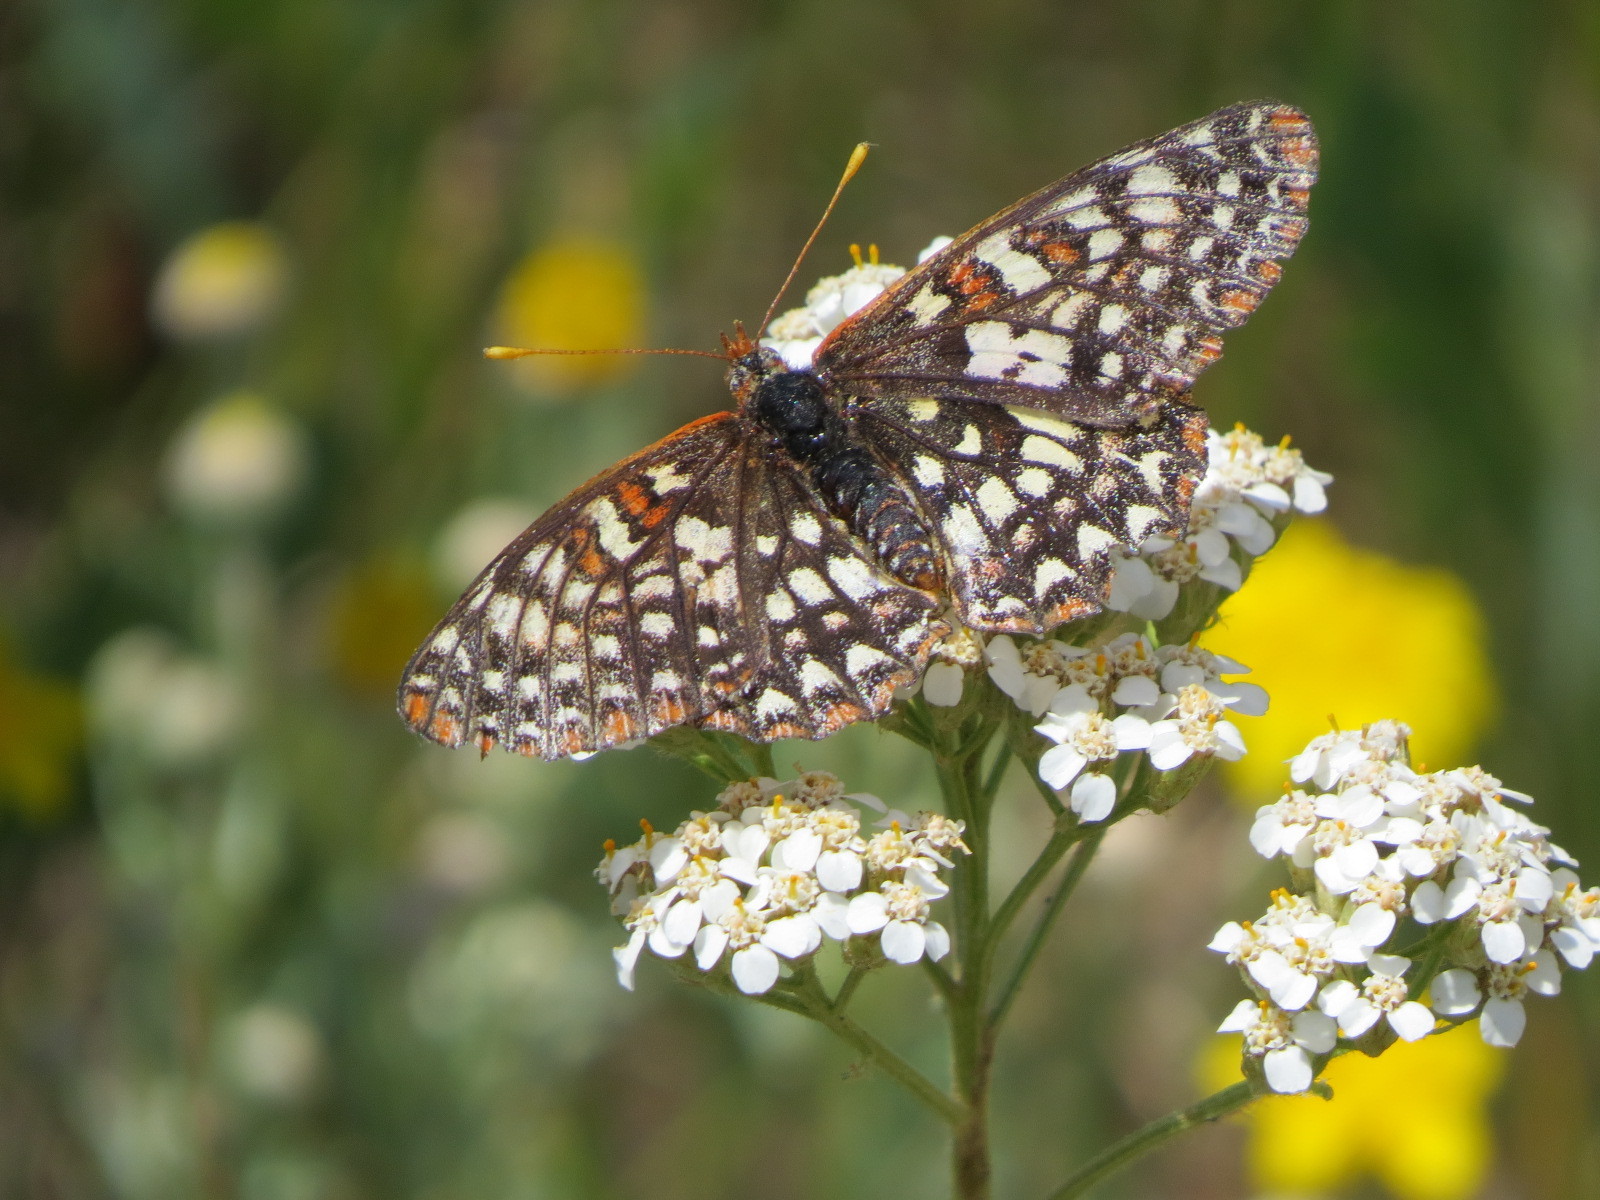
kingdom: Animalia
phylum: Arthropoda
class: Insecta
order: Lepidoptera
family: Nymphalidae
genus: Occidryas
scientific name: Occidryas chalcedona
